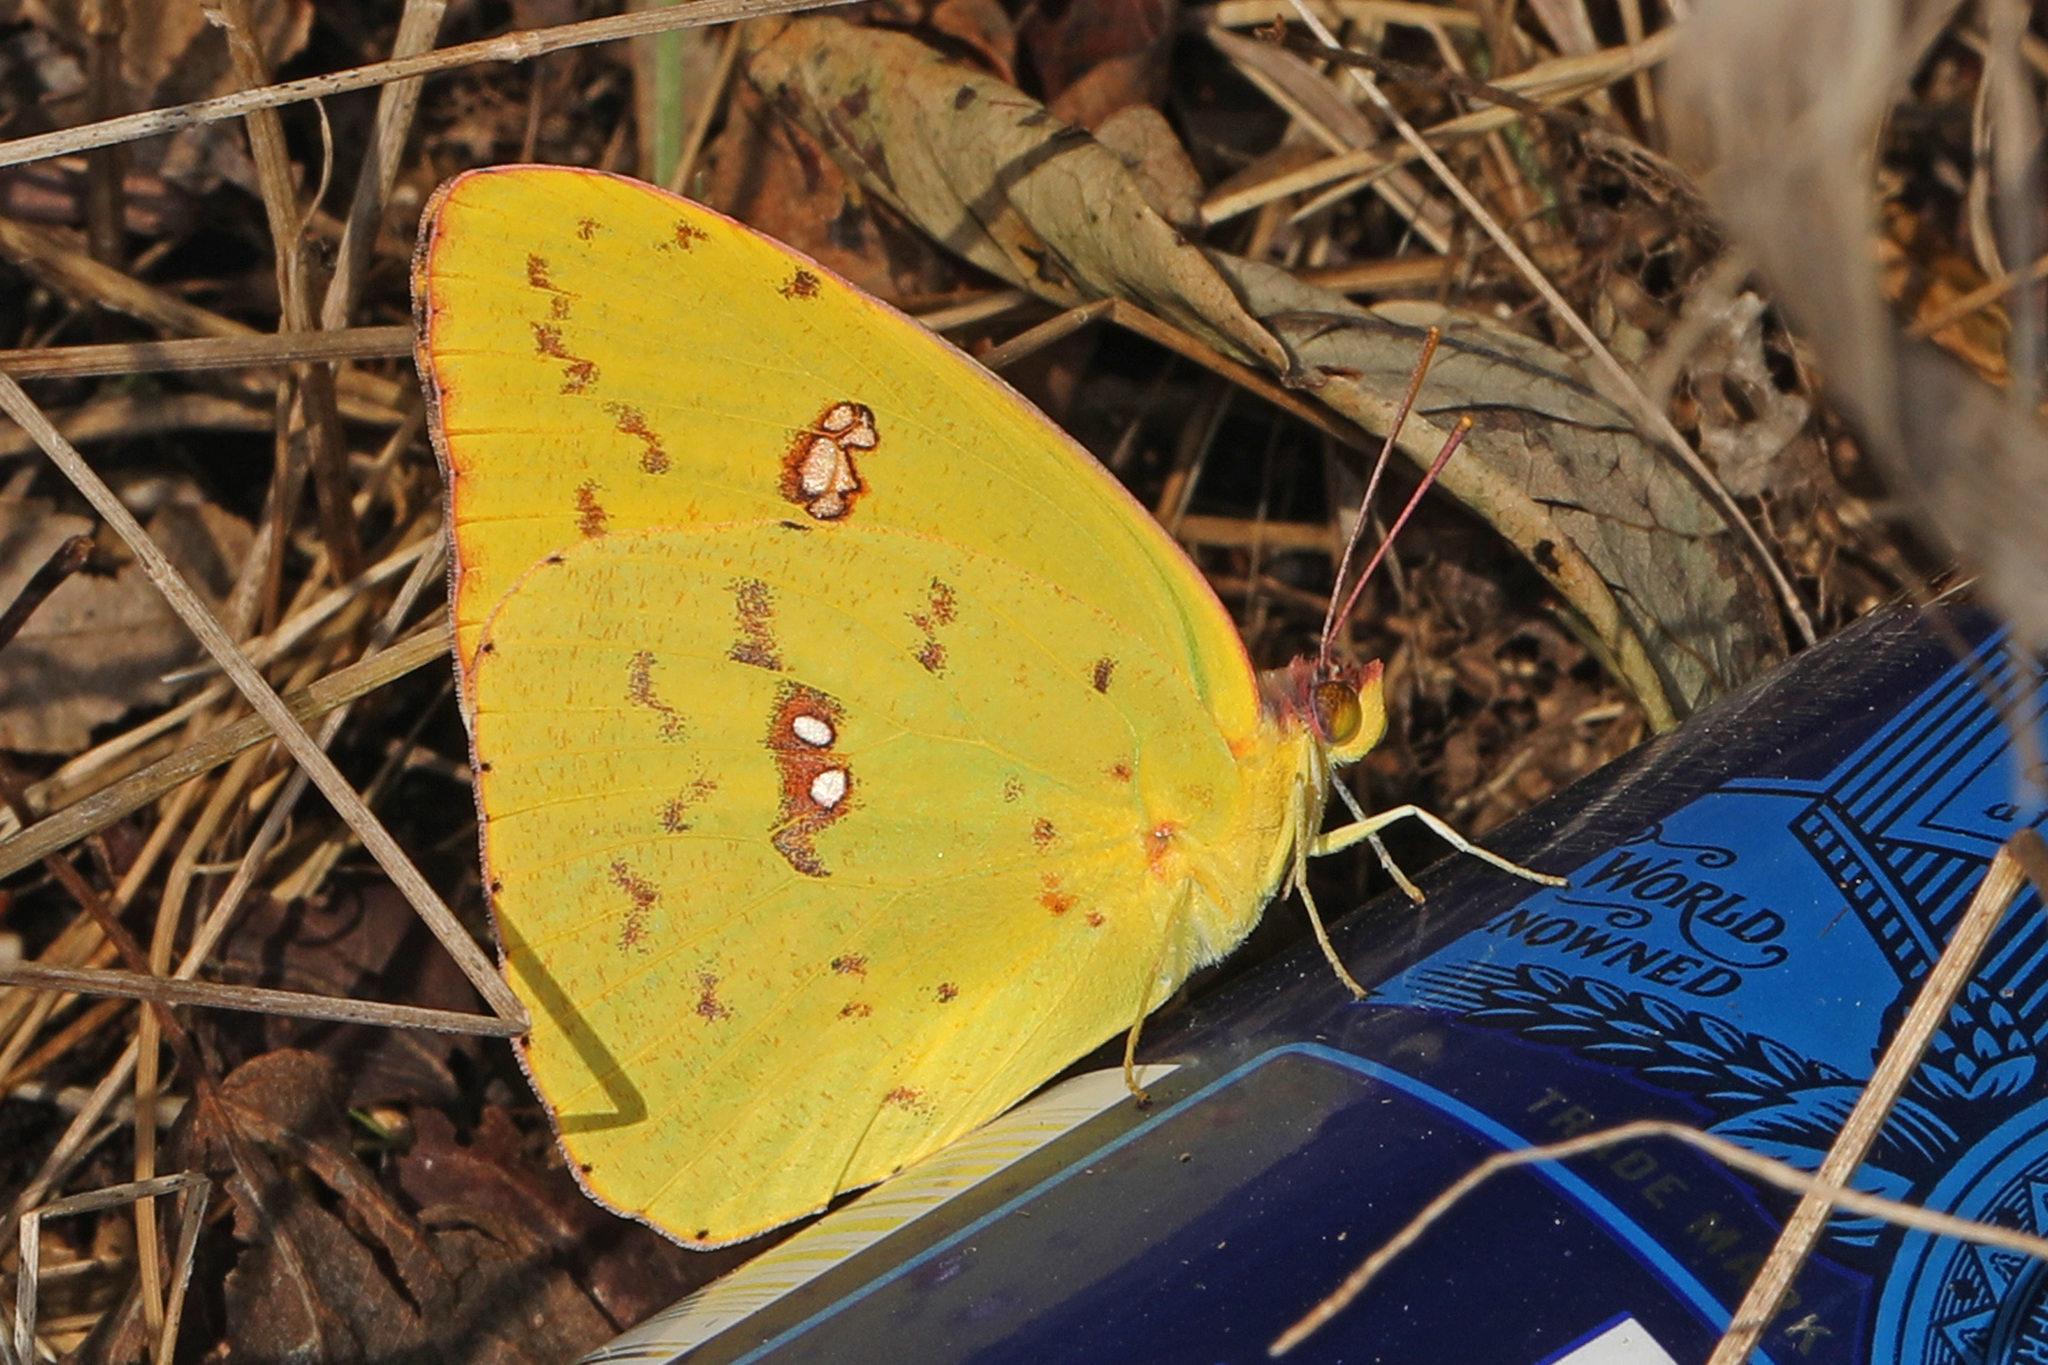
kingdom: Animalia
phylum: Arthropoda
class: Insecta
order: Lepidoptera
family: Pieridae
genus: Phoebis
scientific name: Phoebis sennae
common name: Cloudless sulphur
